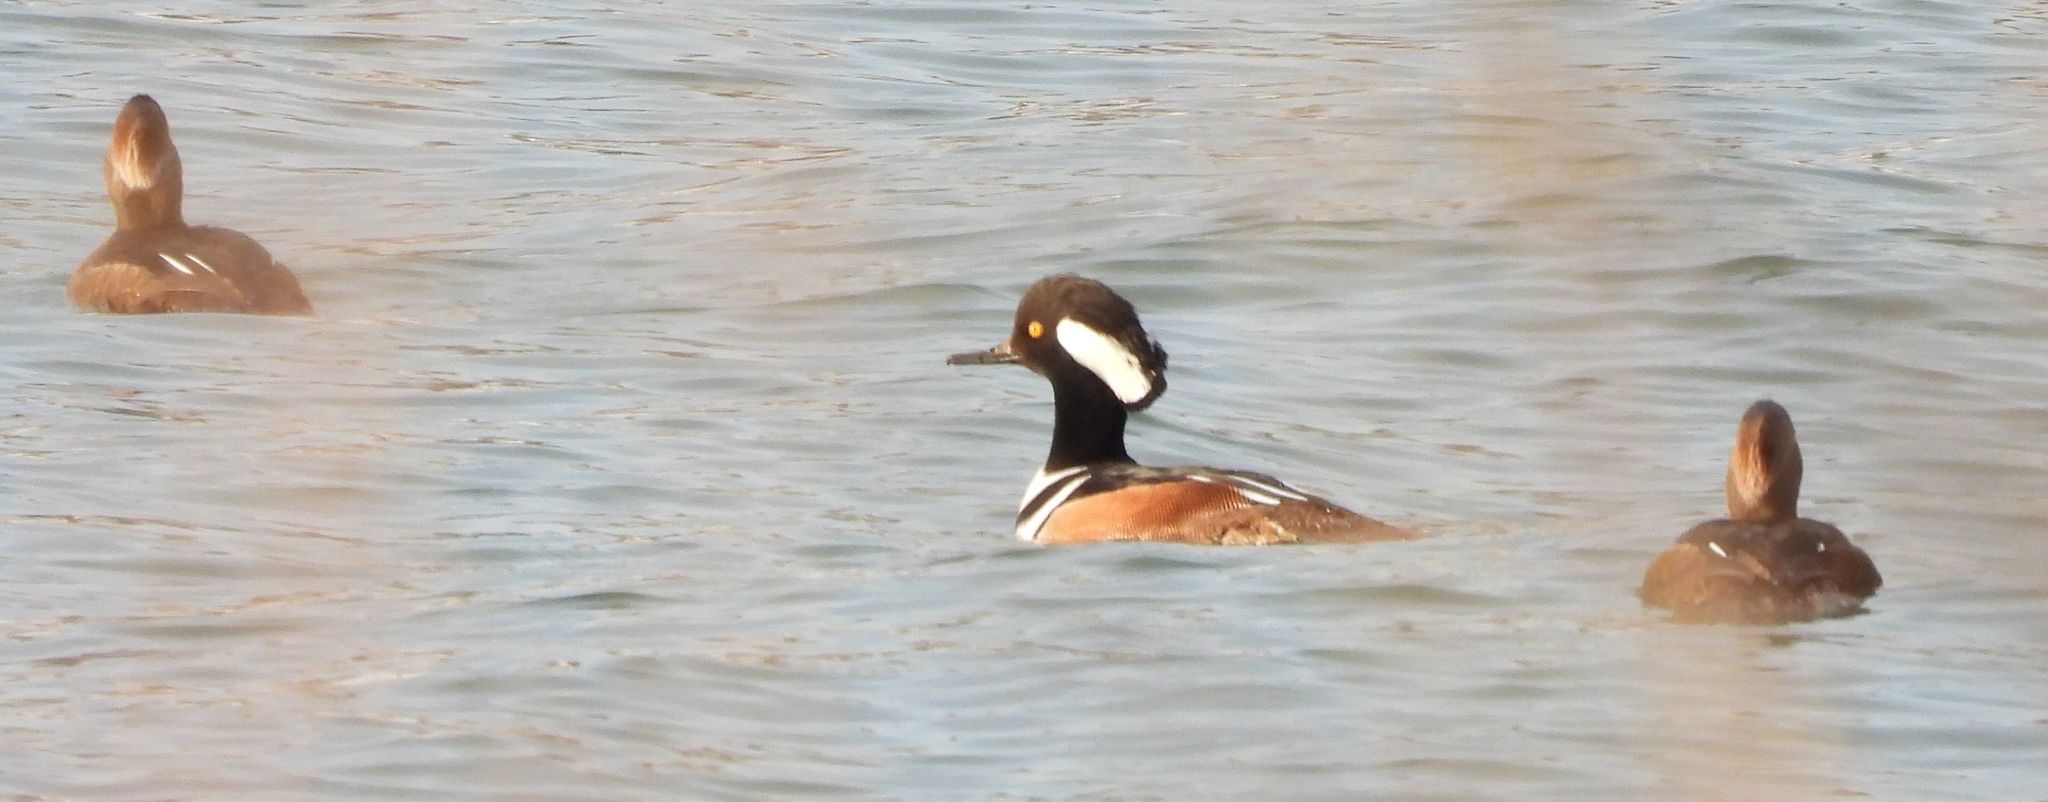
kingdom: Animalia
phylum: Chordata
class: Aves
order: Anseriformes
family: Anatidae
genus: Lophodytes
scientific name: Lophodytes cucullatus
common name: Hooded merganser
